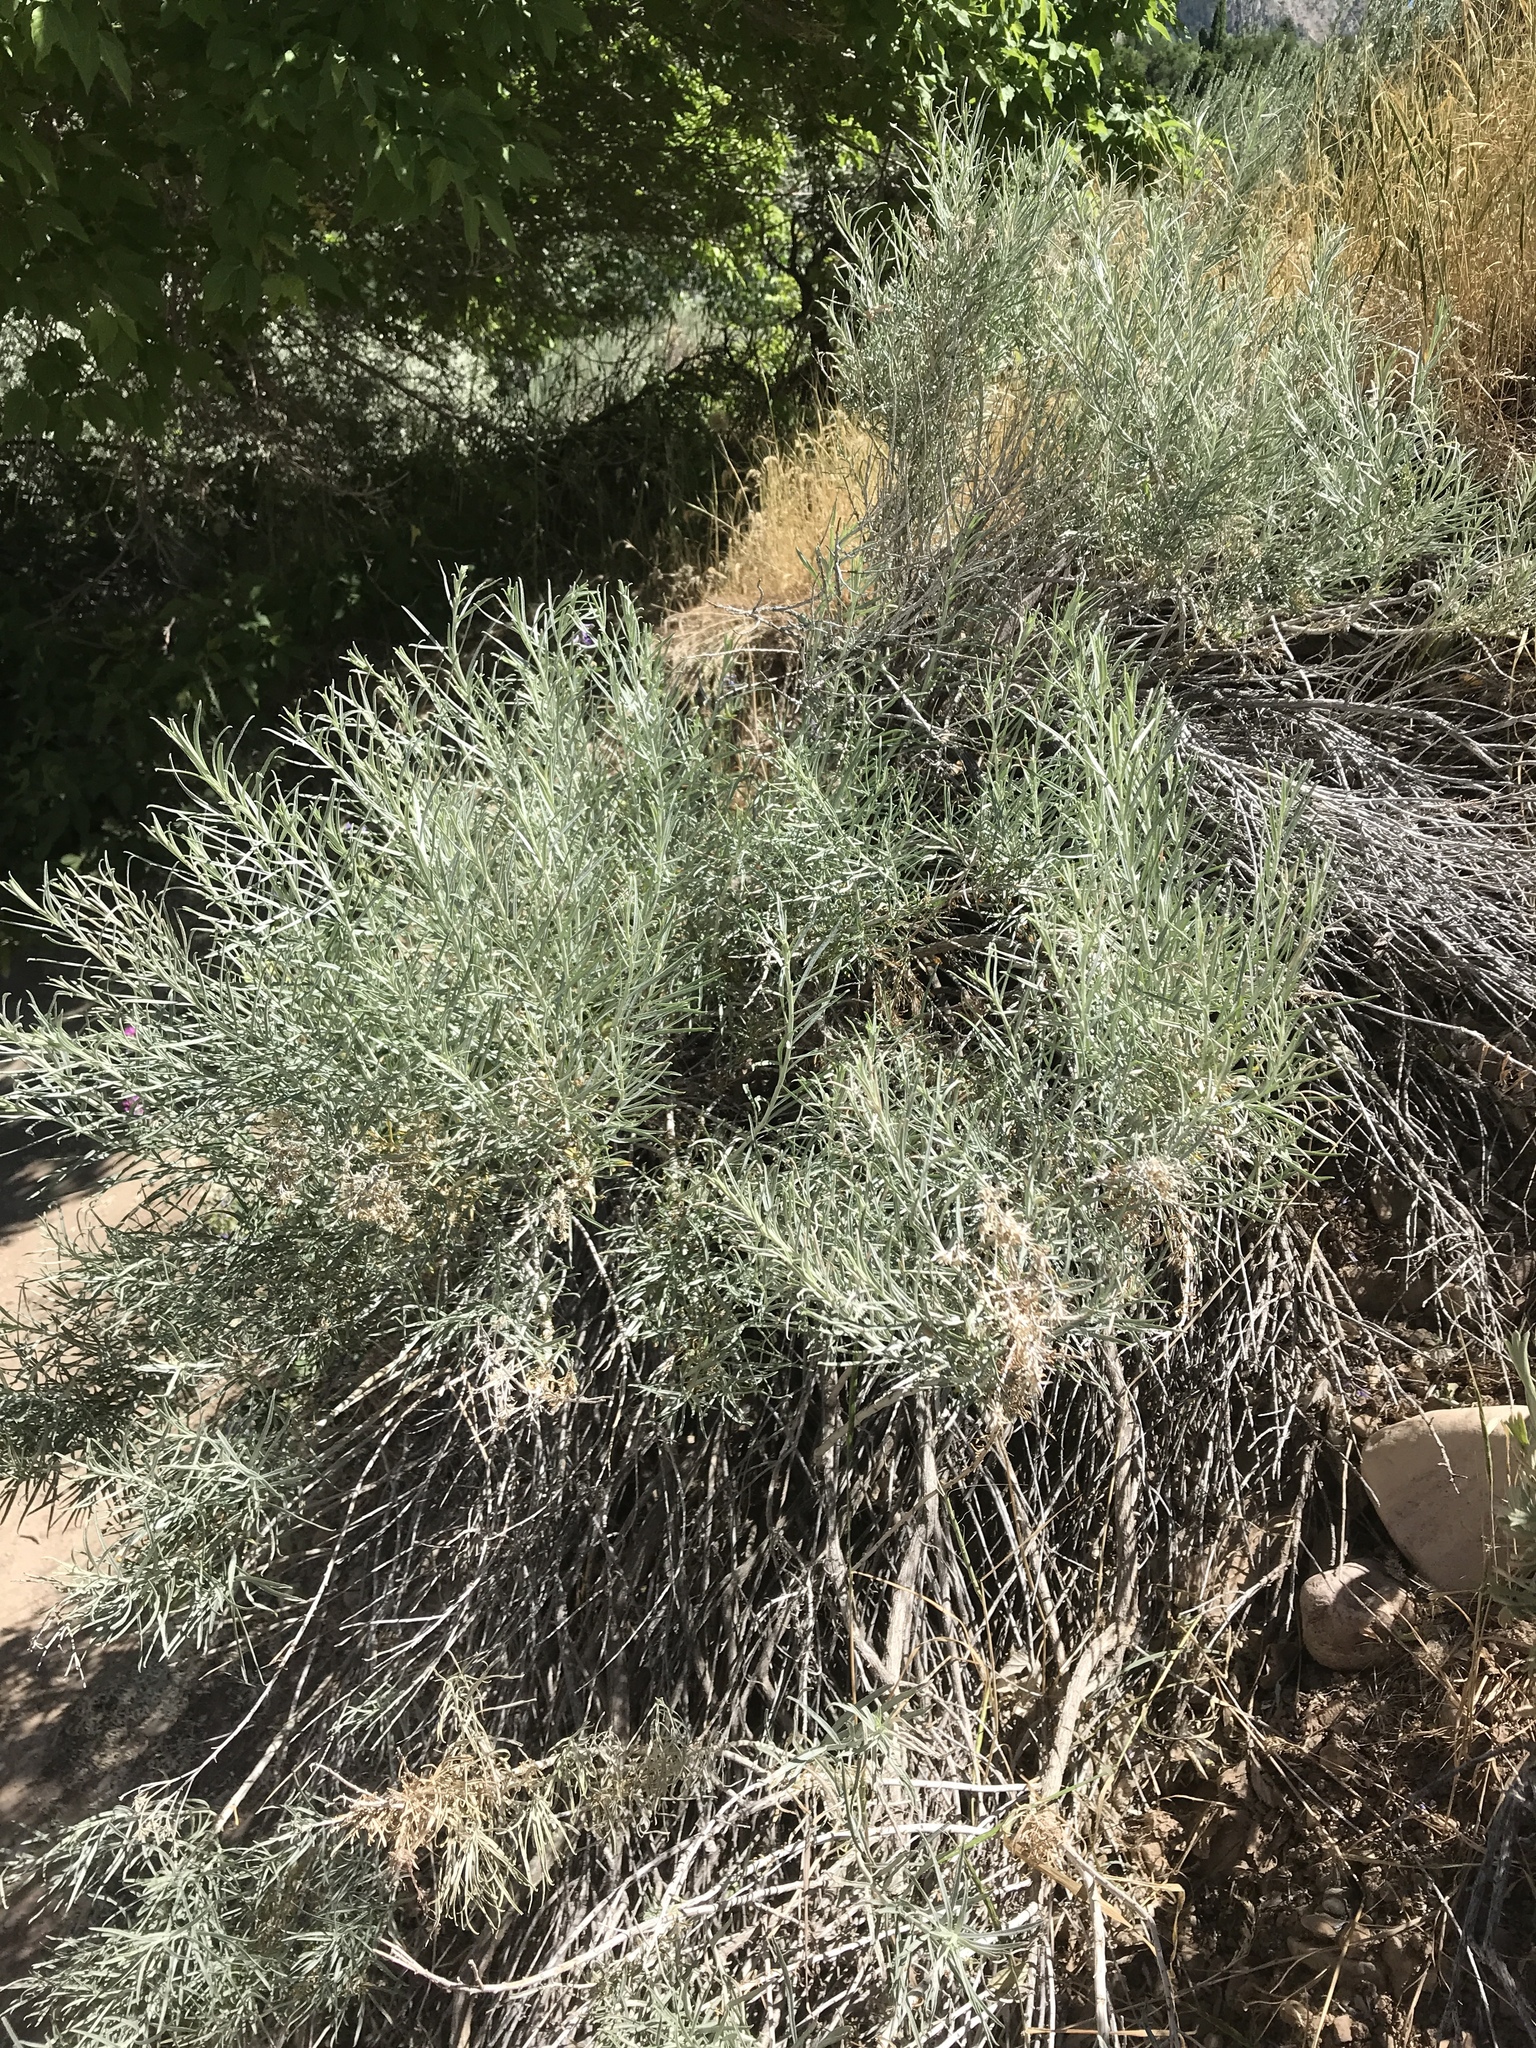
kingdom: Plantae
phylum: Tracheophyta
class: Magnoliopsida
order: Asterales
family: Asteraceae
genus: Ericameria
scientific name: Ericameria nauseosa
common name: Rubber rabbitbrush
